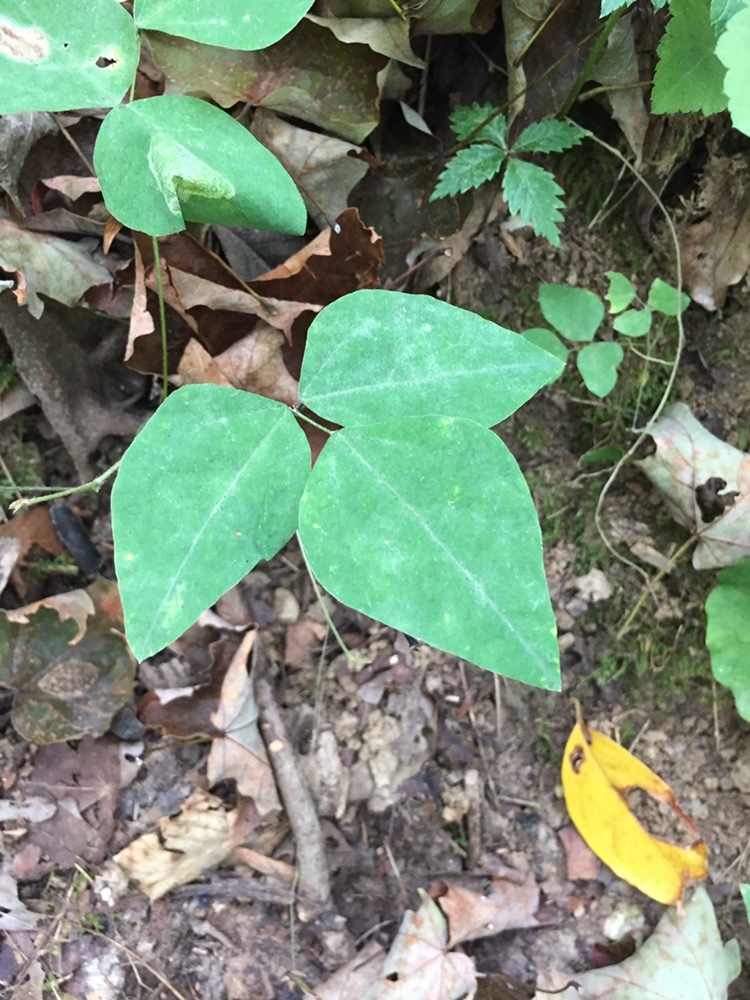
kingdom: Plantae
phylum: Tracheophyta
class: Magnoliopsida
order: Fabales
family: Fabaceae
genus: Amphicarpaea
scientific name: Amphicarpaea bracteata
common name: American hog peanut
